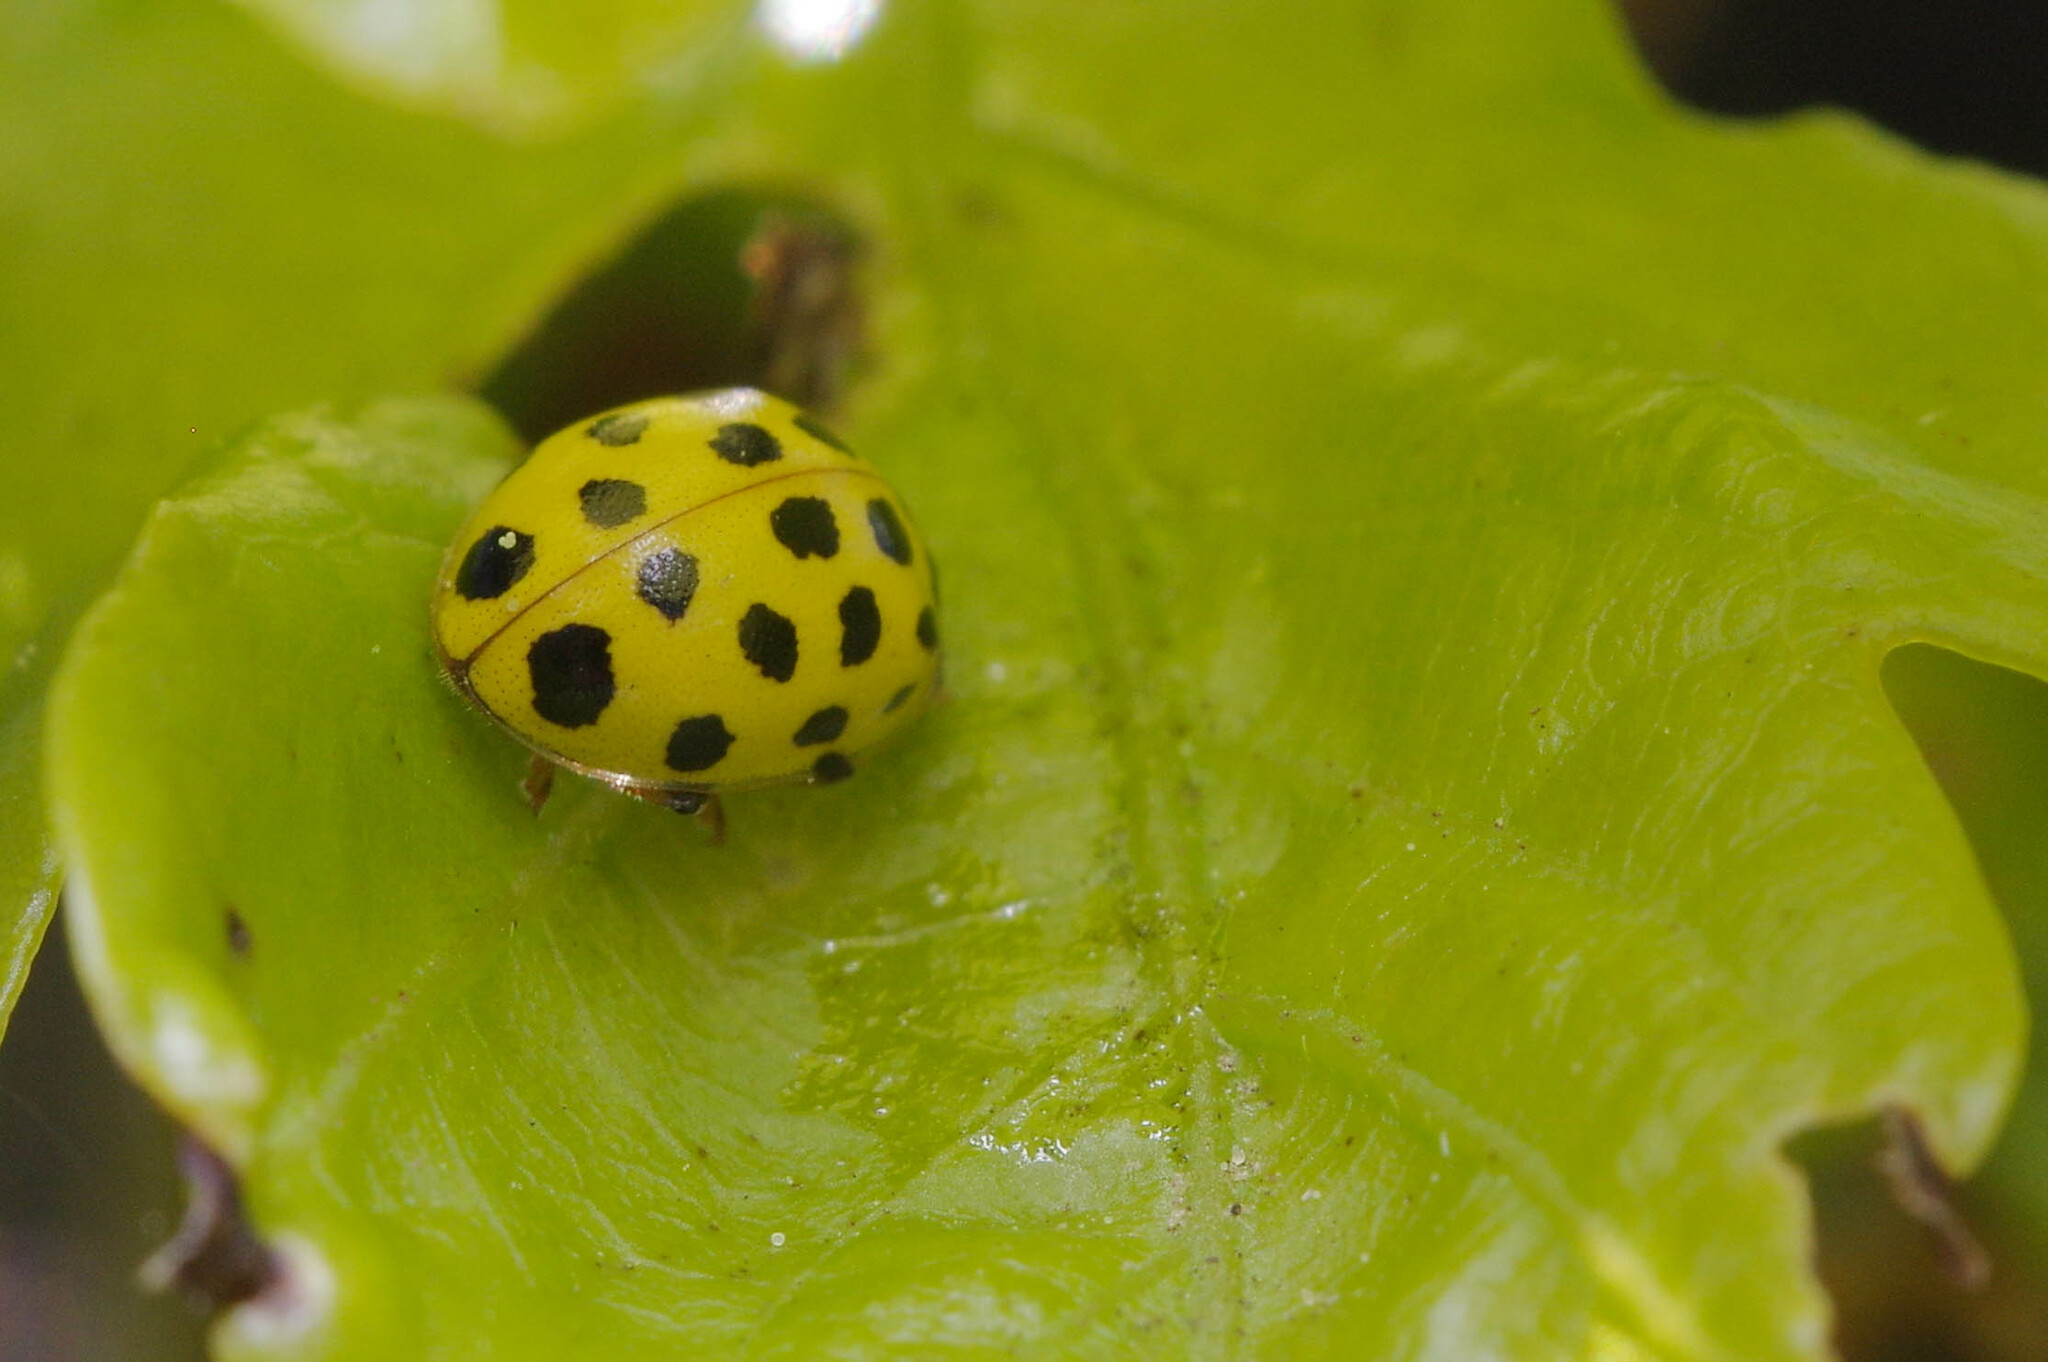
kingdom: Animalia
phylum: Arthropoda
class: Insecta
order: Coleoptera
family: Coccinellidae
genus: Psyllobora
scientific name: Psyllobora vigintiduopunctata
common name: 22-spot ladybird
